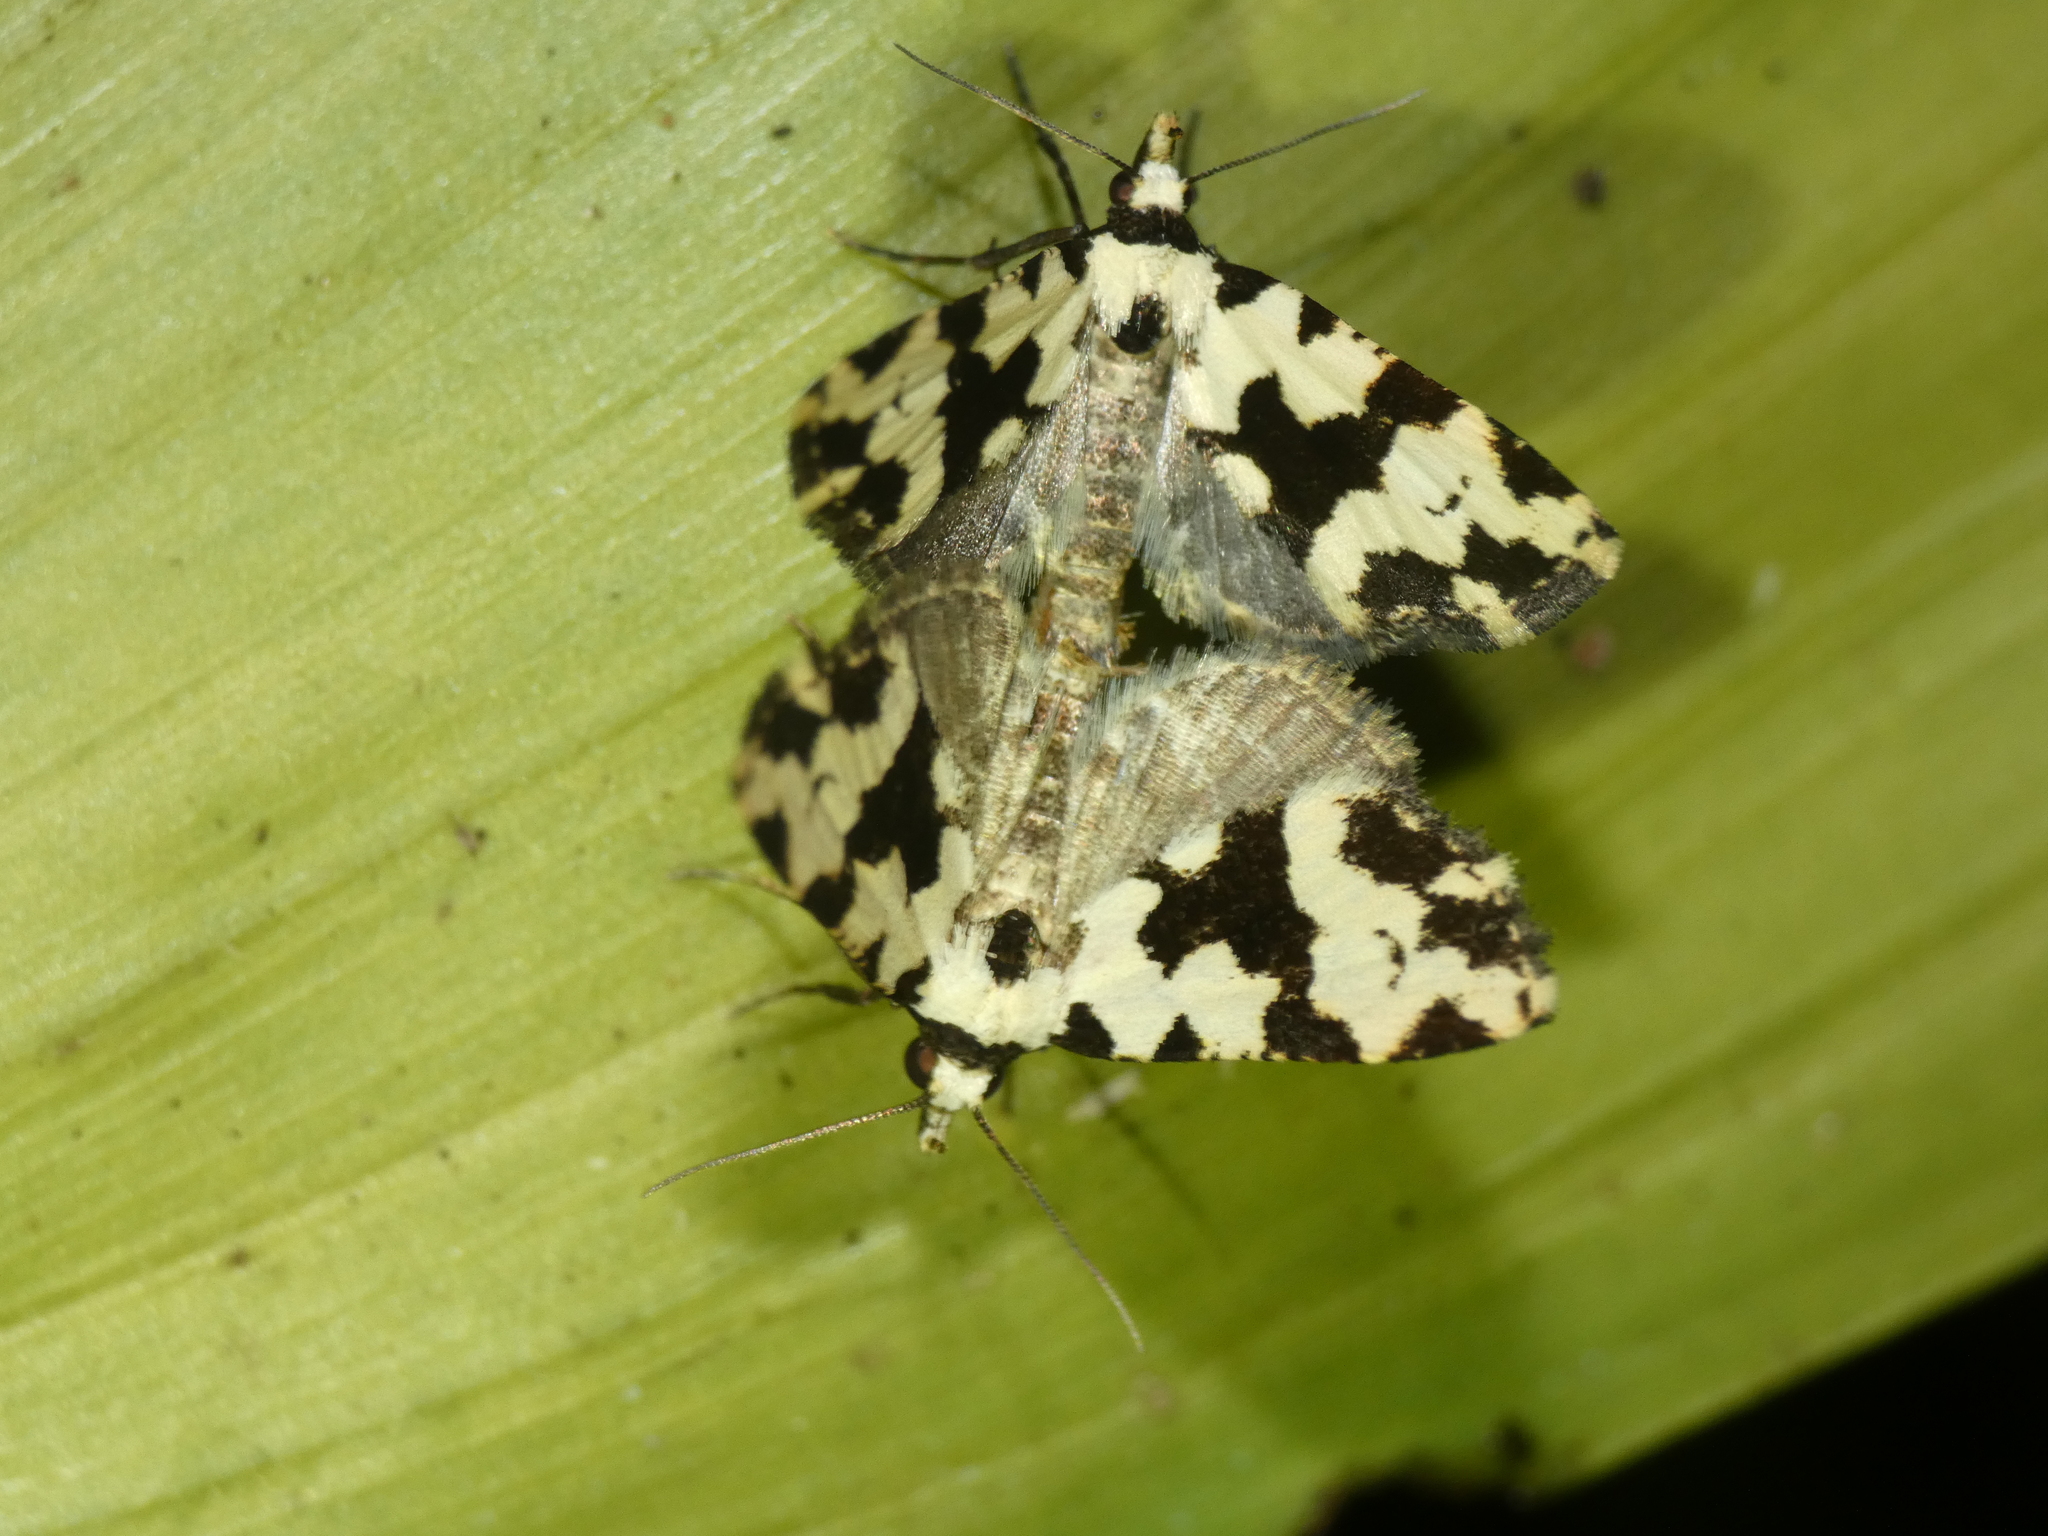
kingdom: Animalia
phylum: Arthropoda
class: Insecta
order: Lepidoptera
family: Erebidae
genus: Chusaris
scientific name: Chusaris
